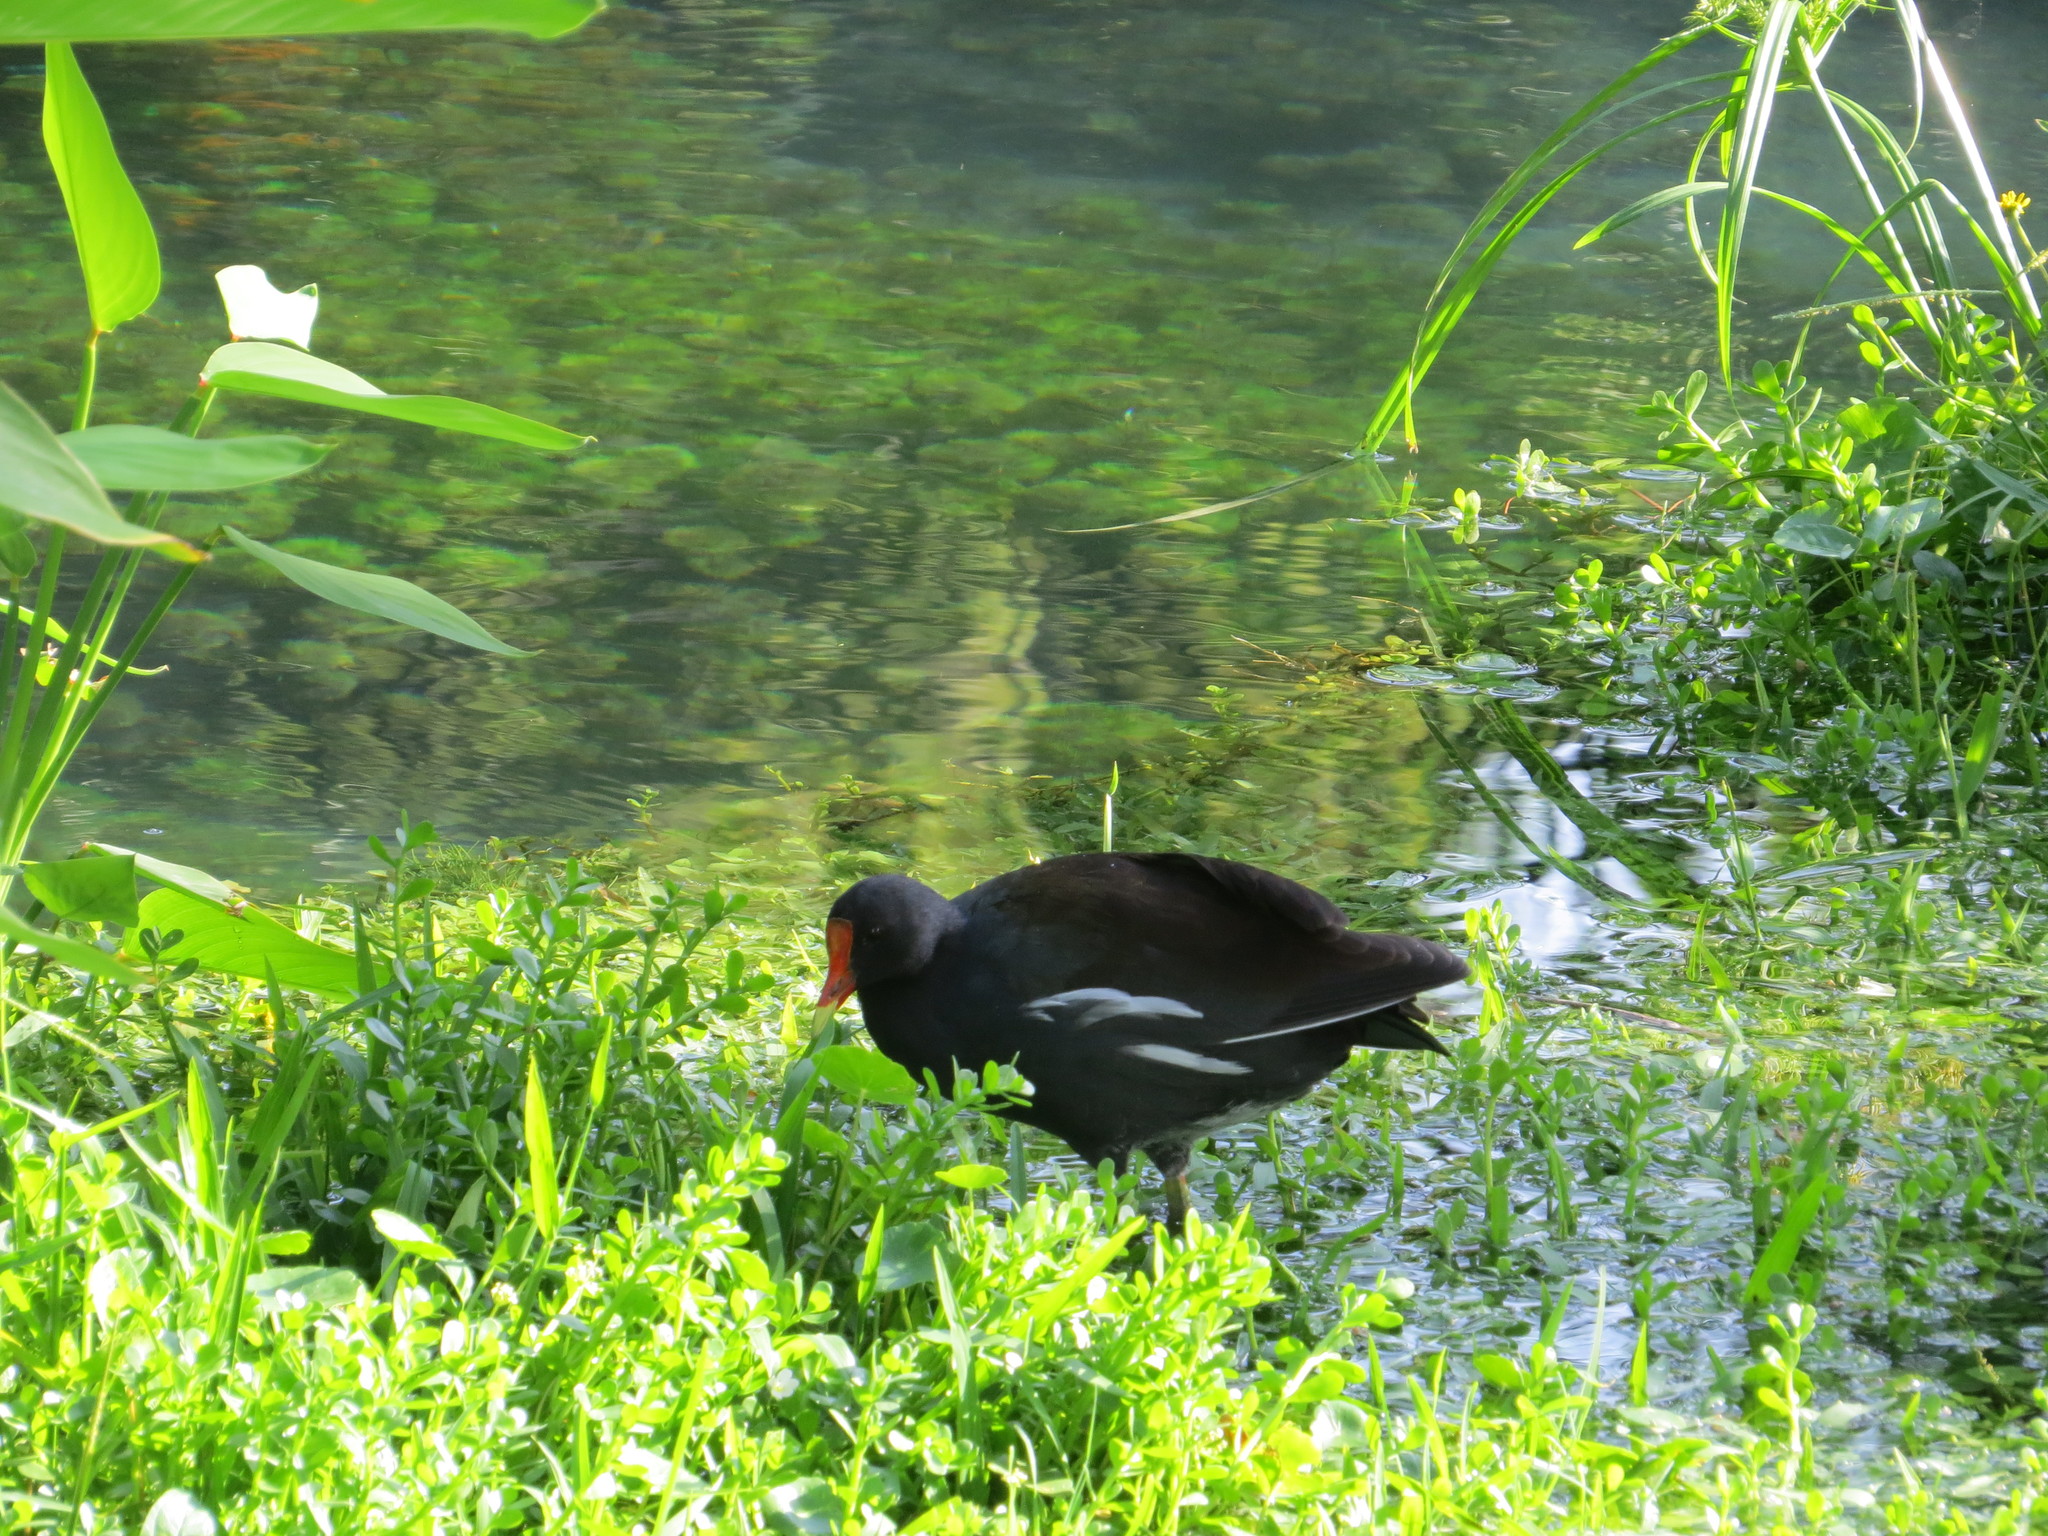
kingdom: Animalia
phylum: Chordata
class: Aves
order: Gruiformes
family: Rallidae
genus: Gallinula
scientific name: Gallinula chloropus
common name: Common moorhen
